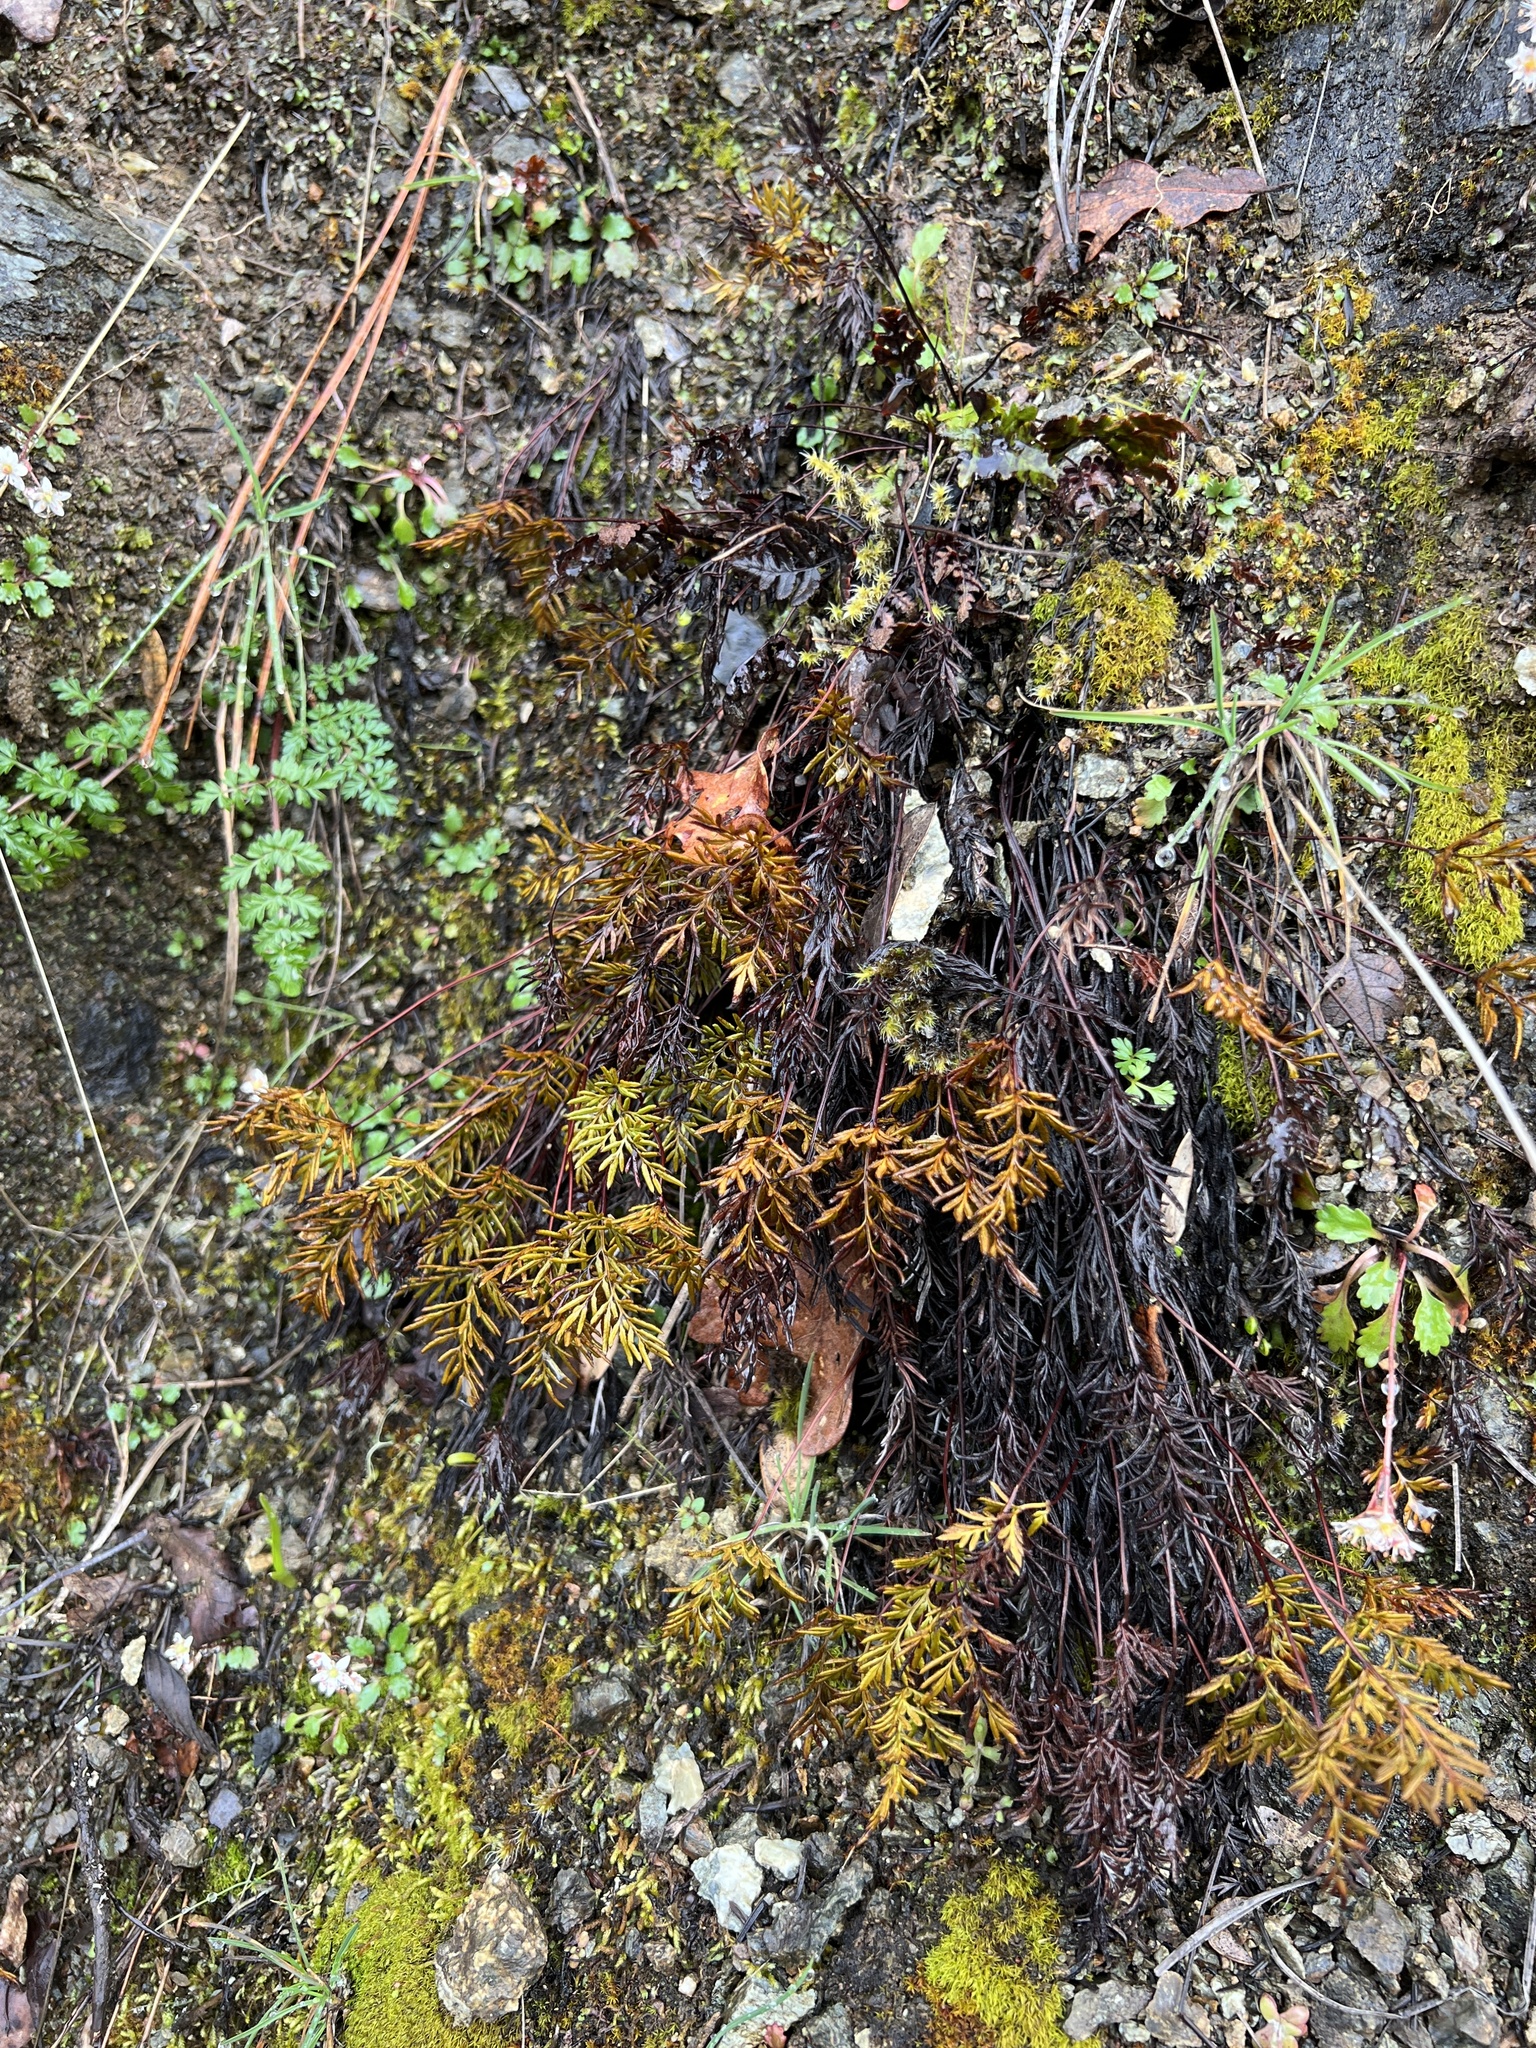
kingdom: Plantae
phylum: Tracheophyta
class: Polypodiopsida
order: Polypodiales
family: Pteridaceae
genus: Aspidotis
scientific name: Aspidotis densa
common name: Indian's dream
